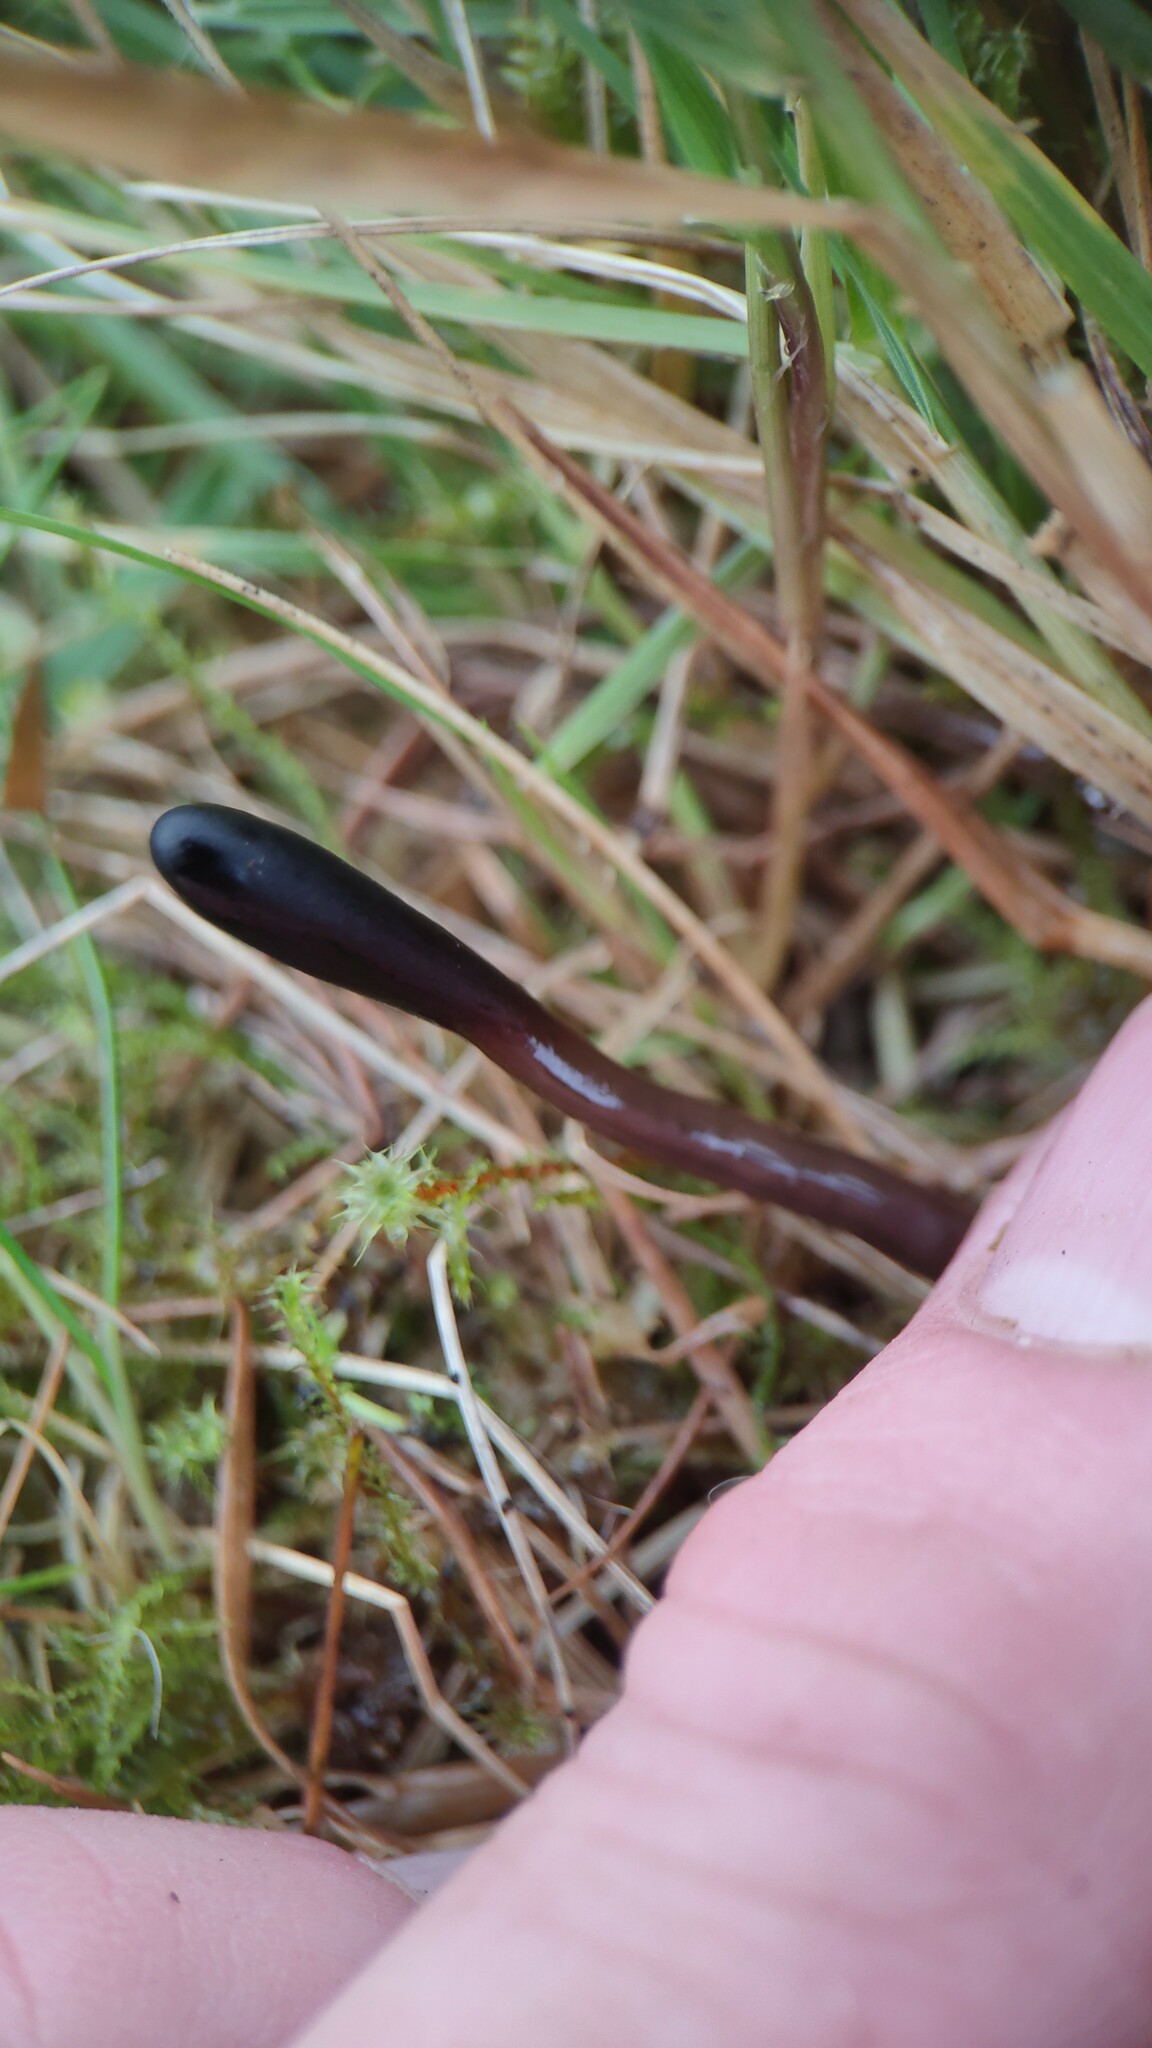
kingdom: Fungi
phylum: Ascomycota
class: Geoglossomycetes
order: Geoglossales
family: Geoglossaceae
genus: Glutinoglossum
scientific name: Glutinoglossum
